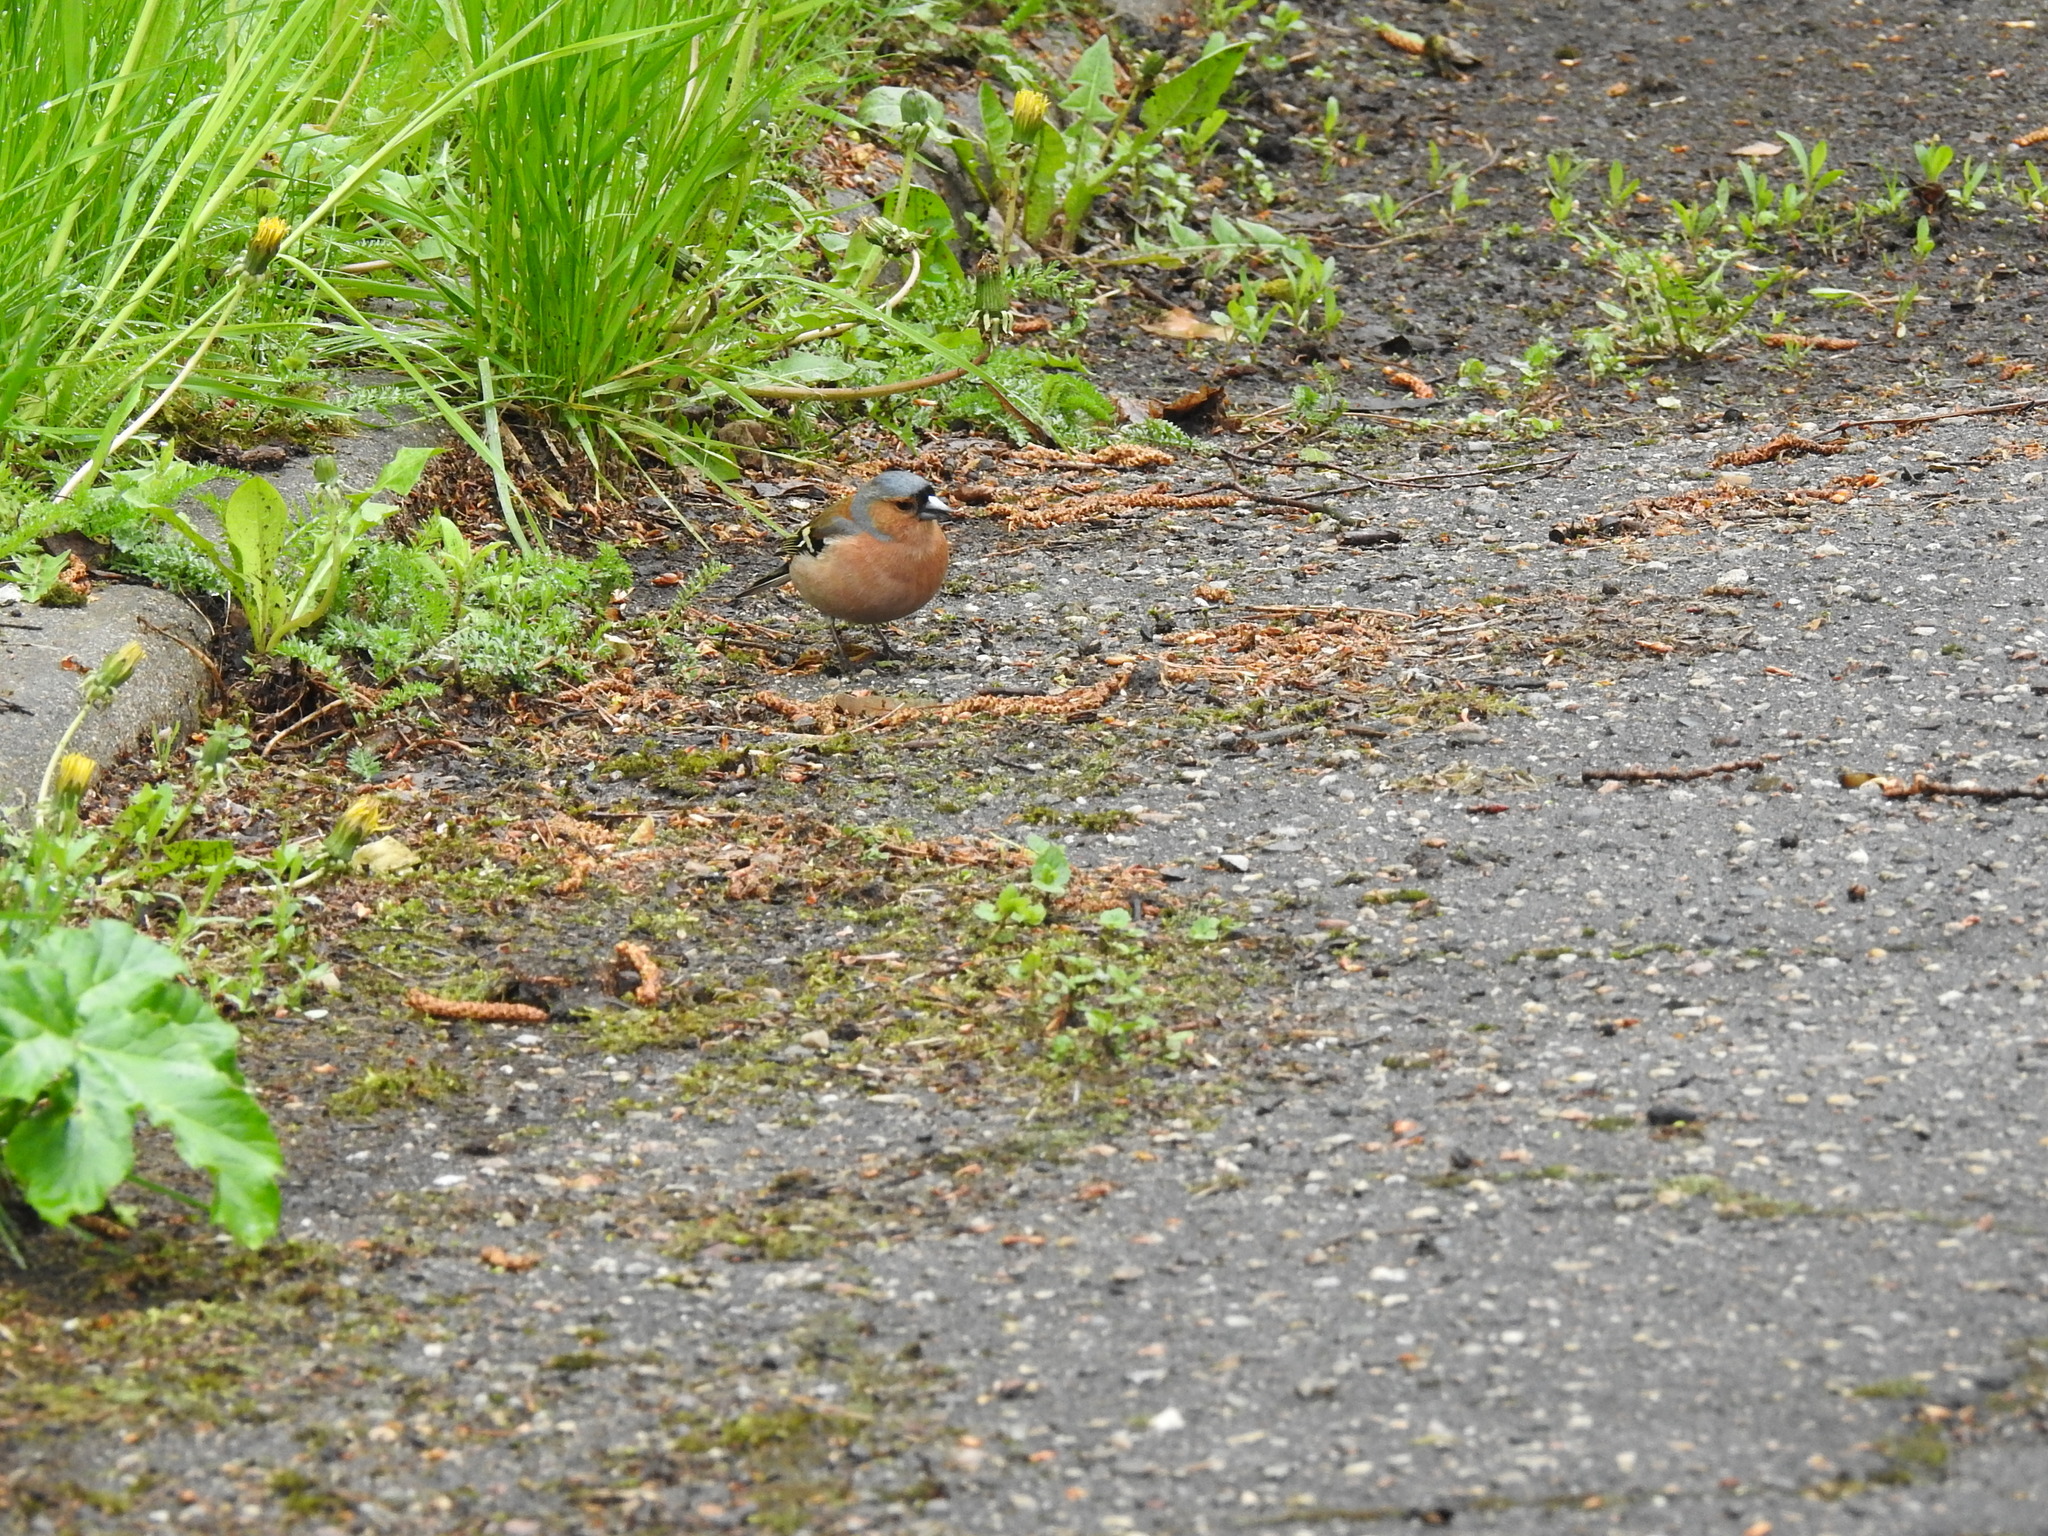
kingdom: Animalia
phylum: Chordata
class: Aves
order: Passeriformes
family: Fringillidae
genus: Fringilla
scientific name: Fringilla coelebs
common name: Common chaffinch
